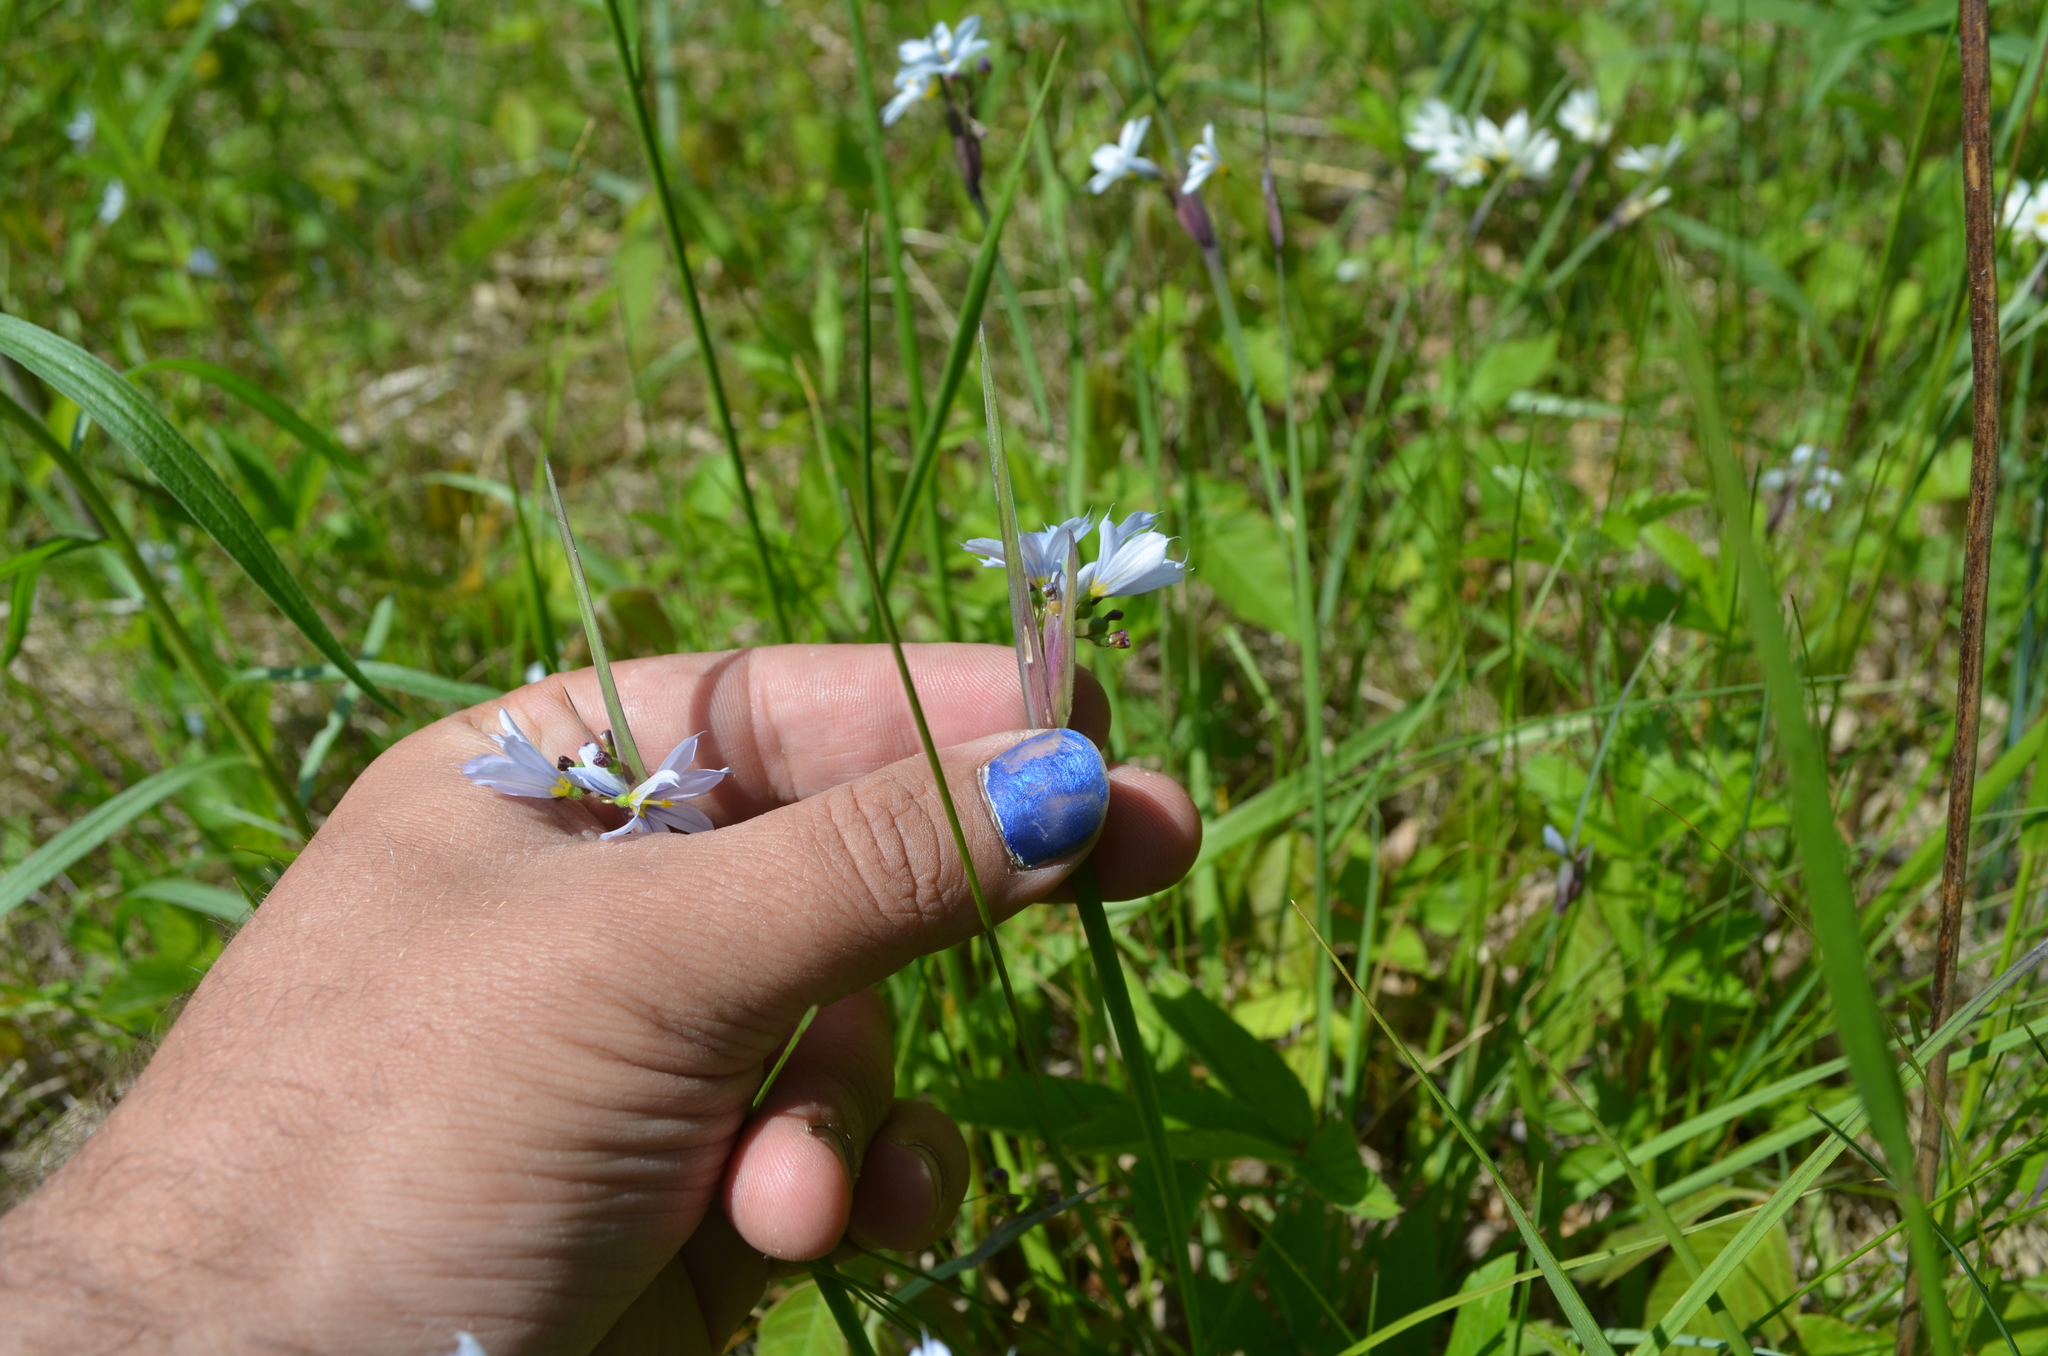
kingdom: Plantae
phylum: Tracheophyta
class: Liliopsida
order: Asparagales
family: Iridaceae
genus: Sisyrinchium
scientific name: Sisyrinchium albidum
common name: Pale blue-eyed-grass
